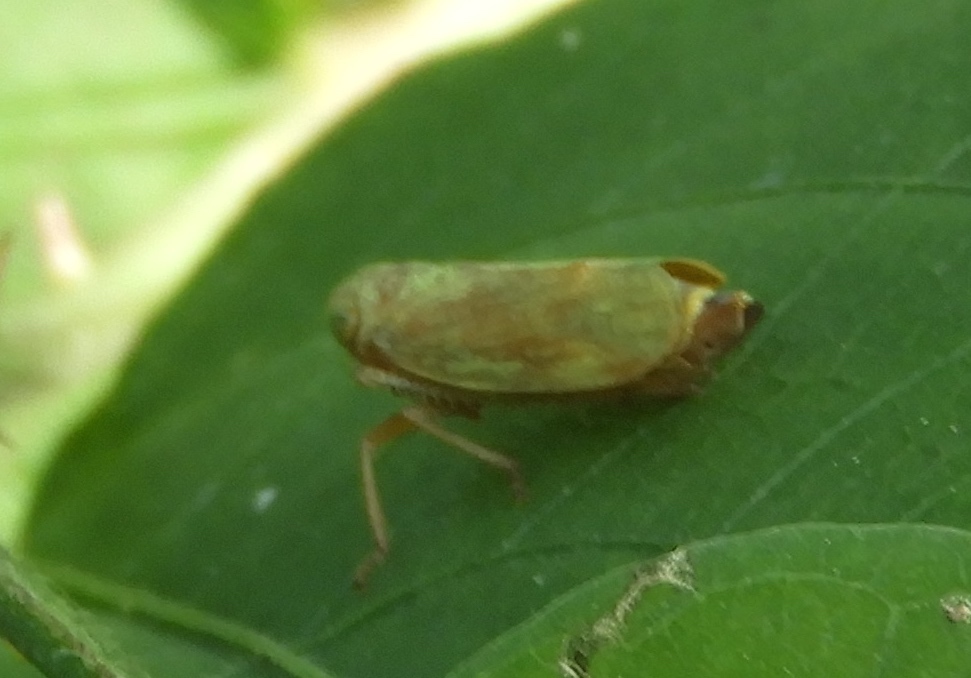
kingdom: Animalia
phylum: Arthropoda
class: Insecta
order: Hemiptera
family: Cicadellidae
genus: Jikradia
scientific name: Jikradia
